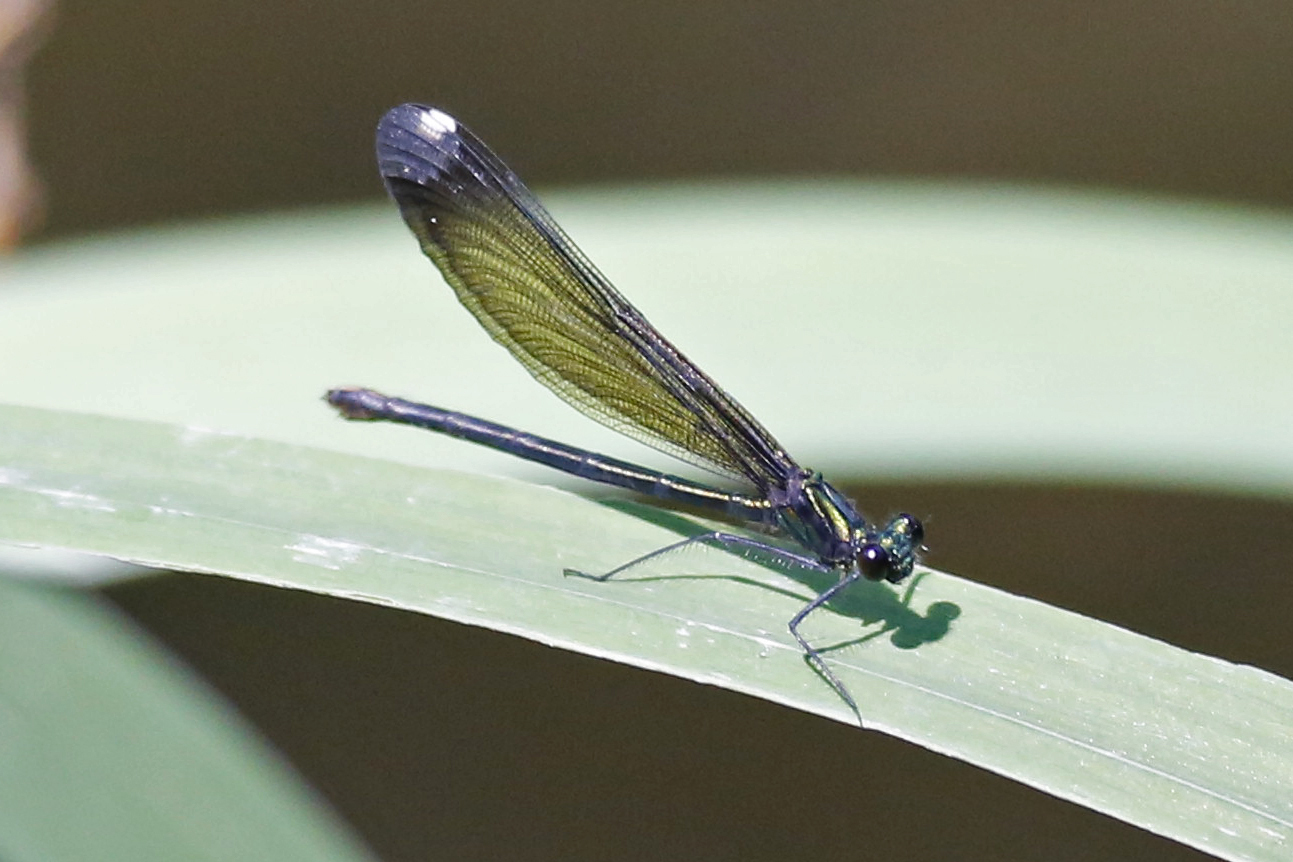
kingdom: Animalia
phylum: Arthropoda
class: Insecta
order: Odonata
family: Calopterygidae
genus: Calopteryx
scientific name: Calopteryx maculata
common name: Ebony jewelwing
